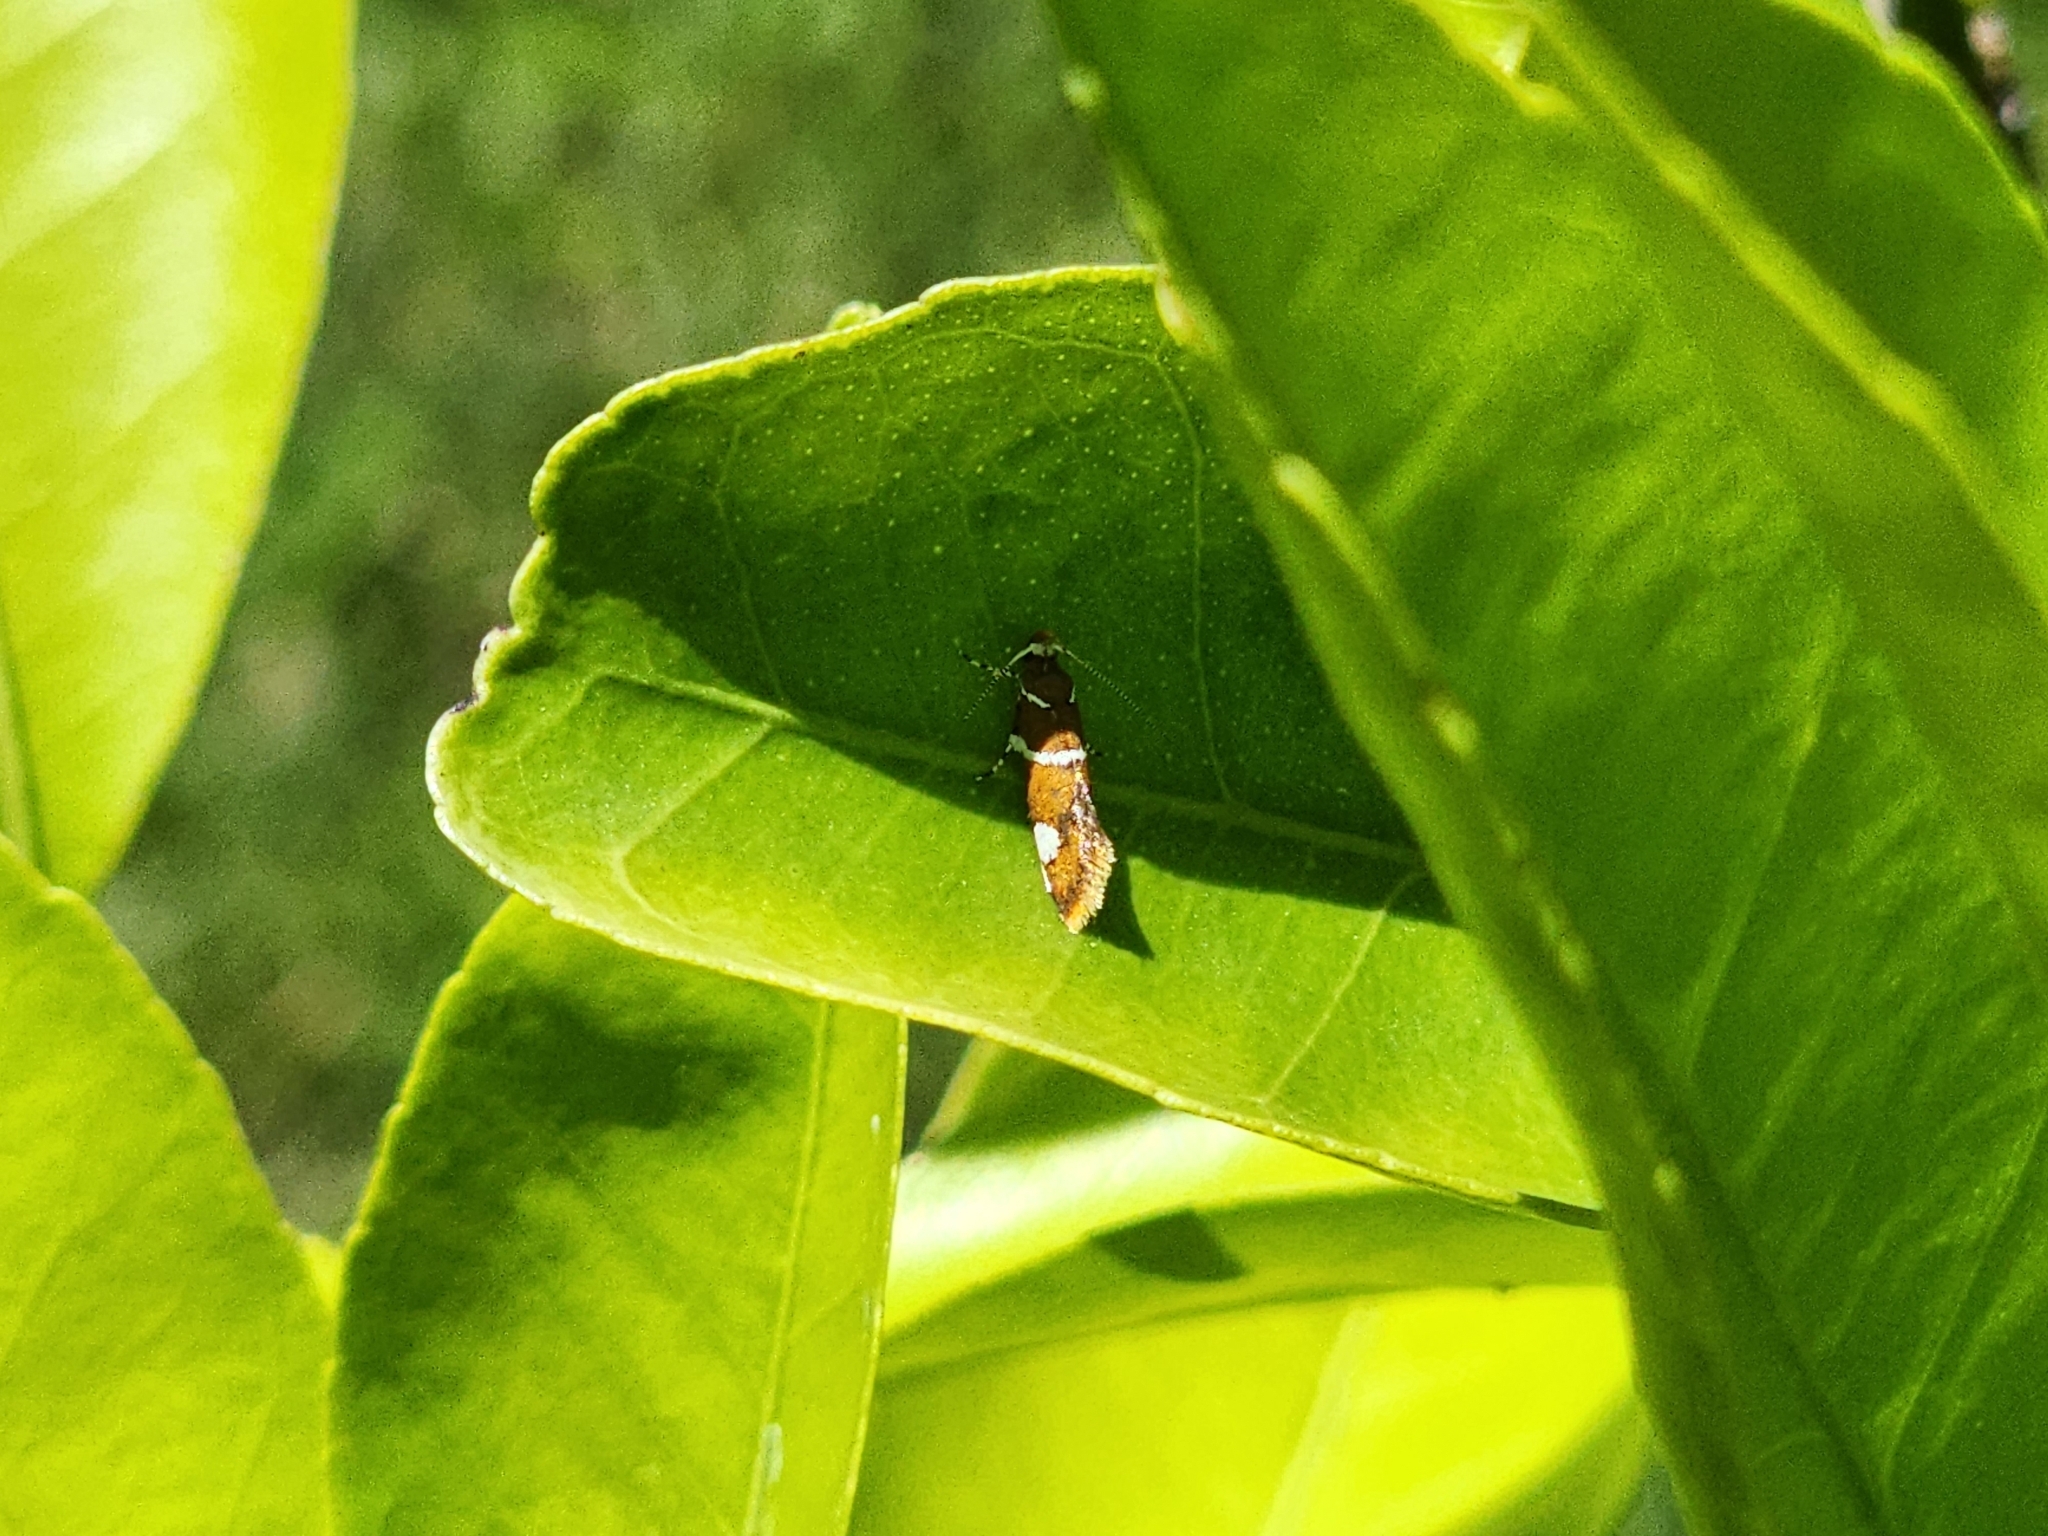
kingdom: Animalia
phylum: Arthropoda
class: Insecta
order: Lepidoptera
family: Oecophoridae
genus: Promalactis
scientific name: Promalactis suzukiella
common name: Moth
